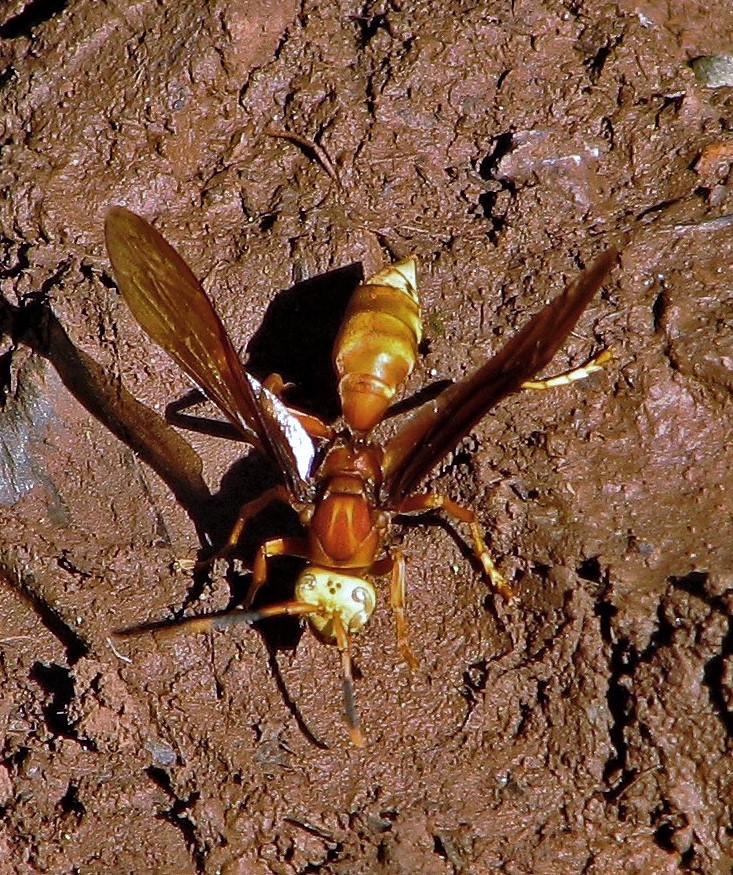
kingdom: Animalia
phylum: Arthropoda
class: Insecta
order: Hymenoptera
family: Eumenidae
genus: Polistes
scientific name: Polistes cavapyta
